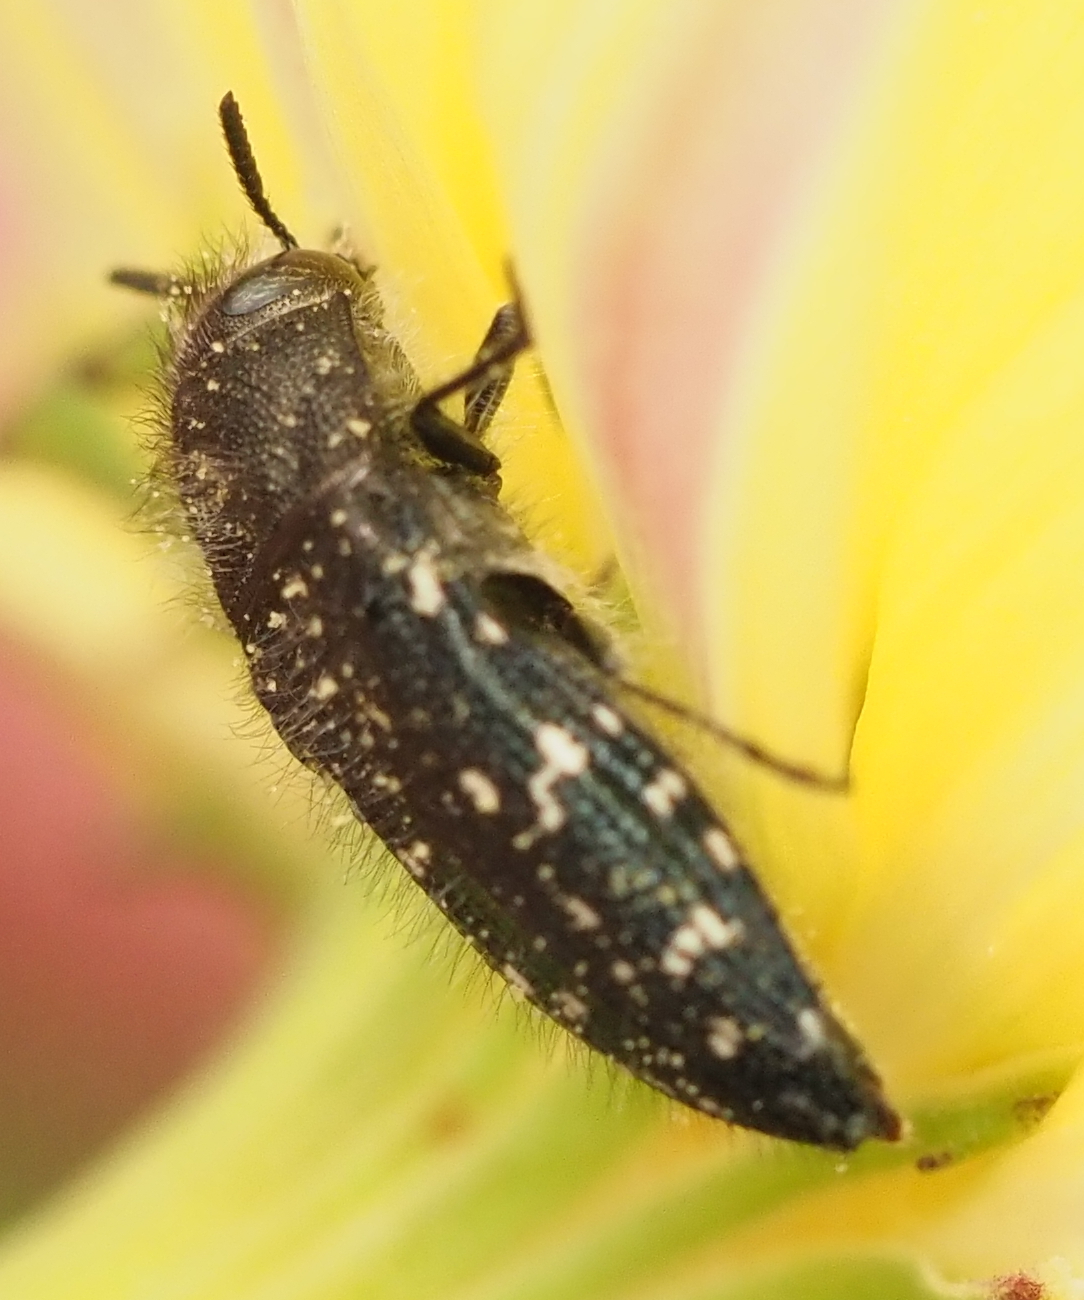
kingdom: Animalia
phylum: Arthropoda
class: Insecta
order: Coleoptera
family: Buprestidae
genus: Acmaeodera
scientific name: Acmaeodera ornatoides
